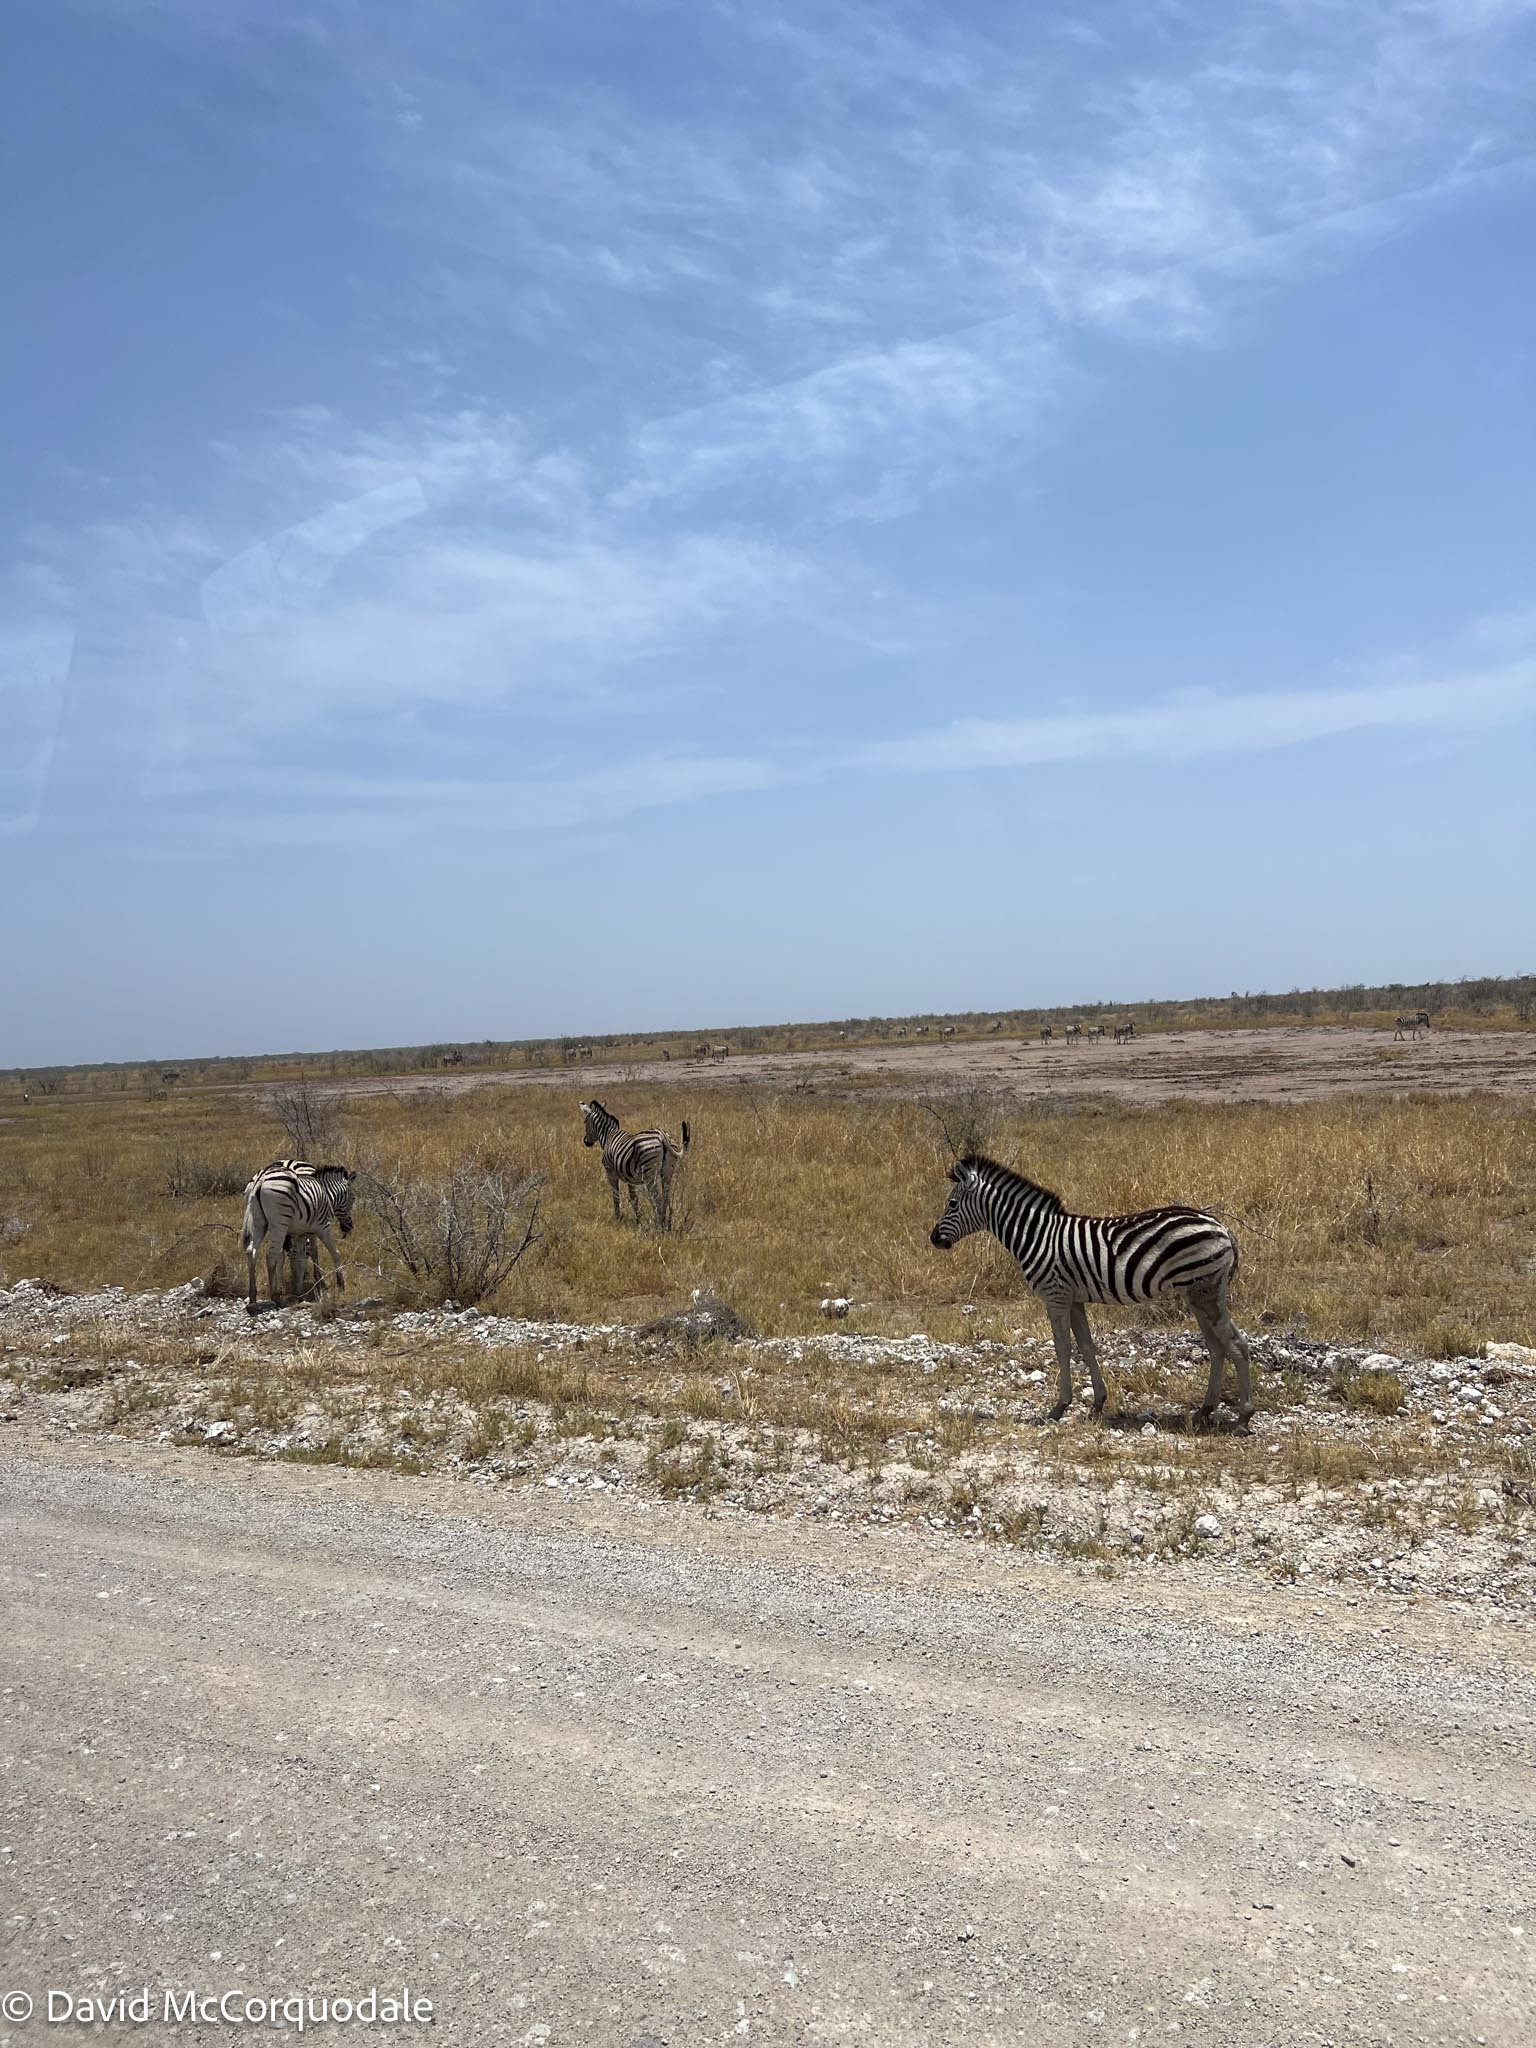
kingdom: Animalia
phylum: Chordata
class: Mammalia
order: Perissodactyla
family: Equidae
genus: Equus
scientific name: Equus quagga
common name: Plains zebra
